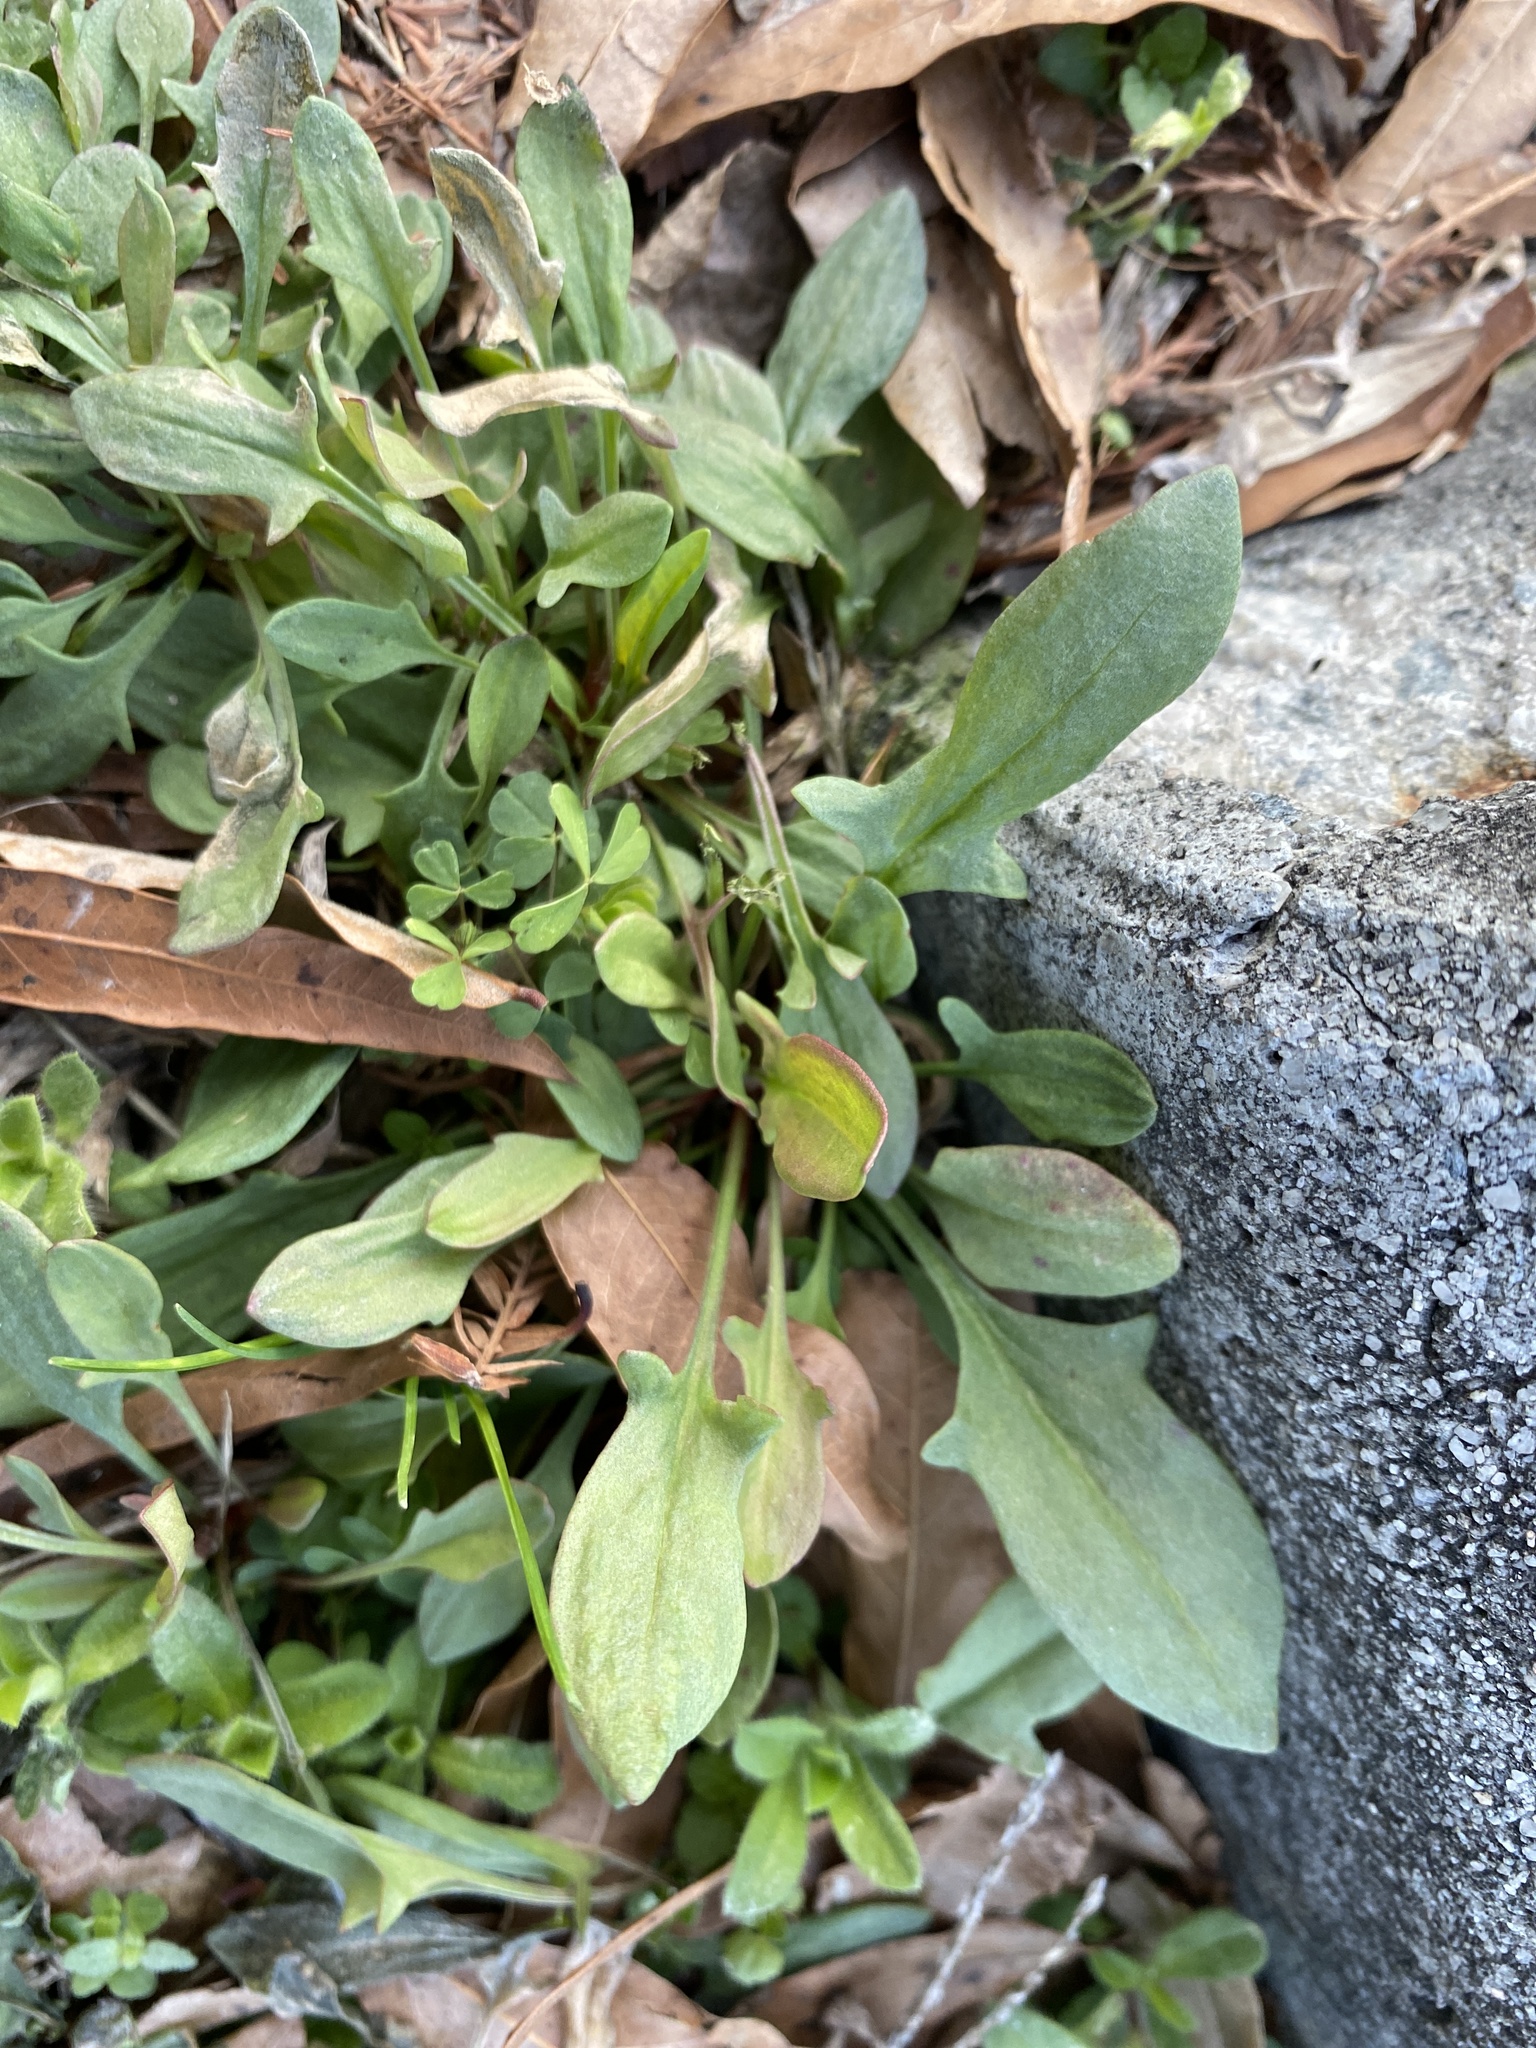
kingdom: Plantae
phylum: Tracheophyta
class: Magnoliopsida
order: Caryophyllales
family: Polygonaceae
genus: Rumex
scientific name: Rumex acetosella
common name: Common sheep sorrel
